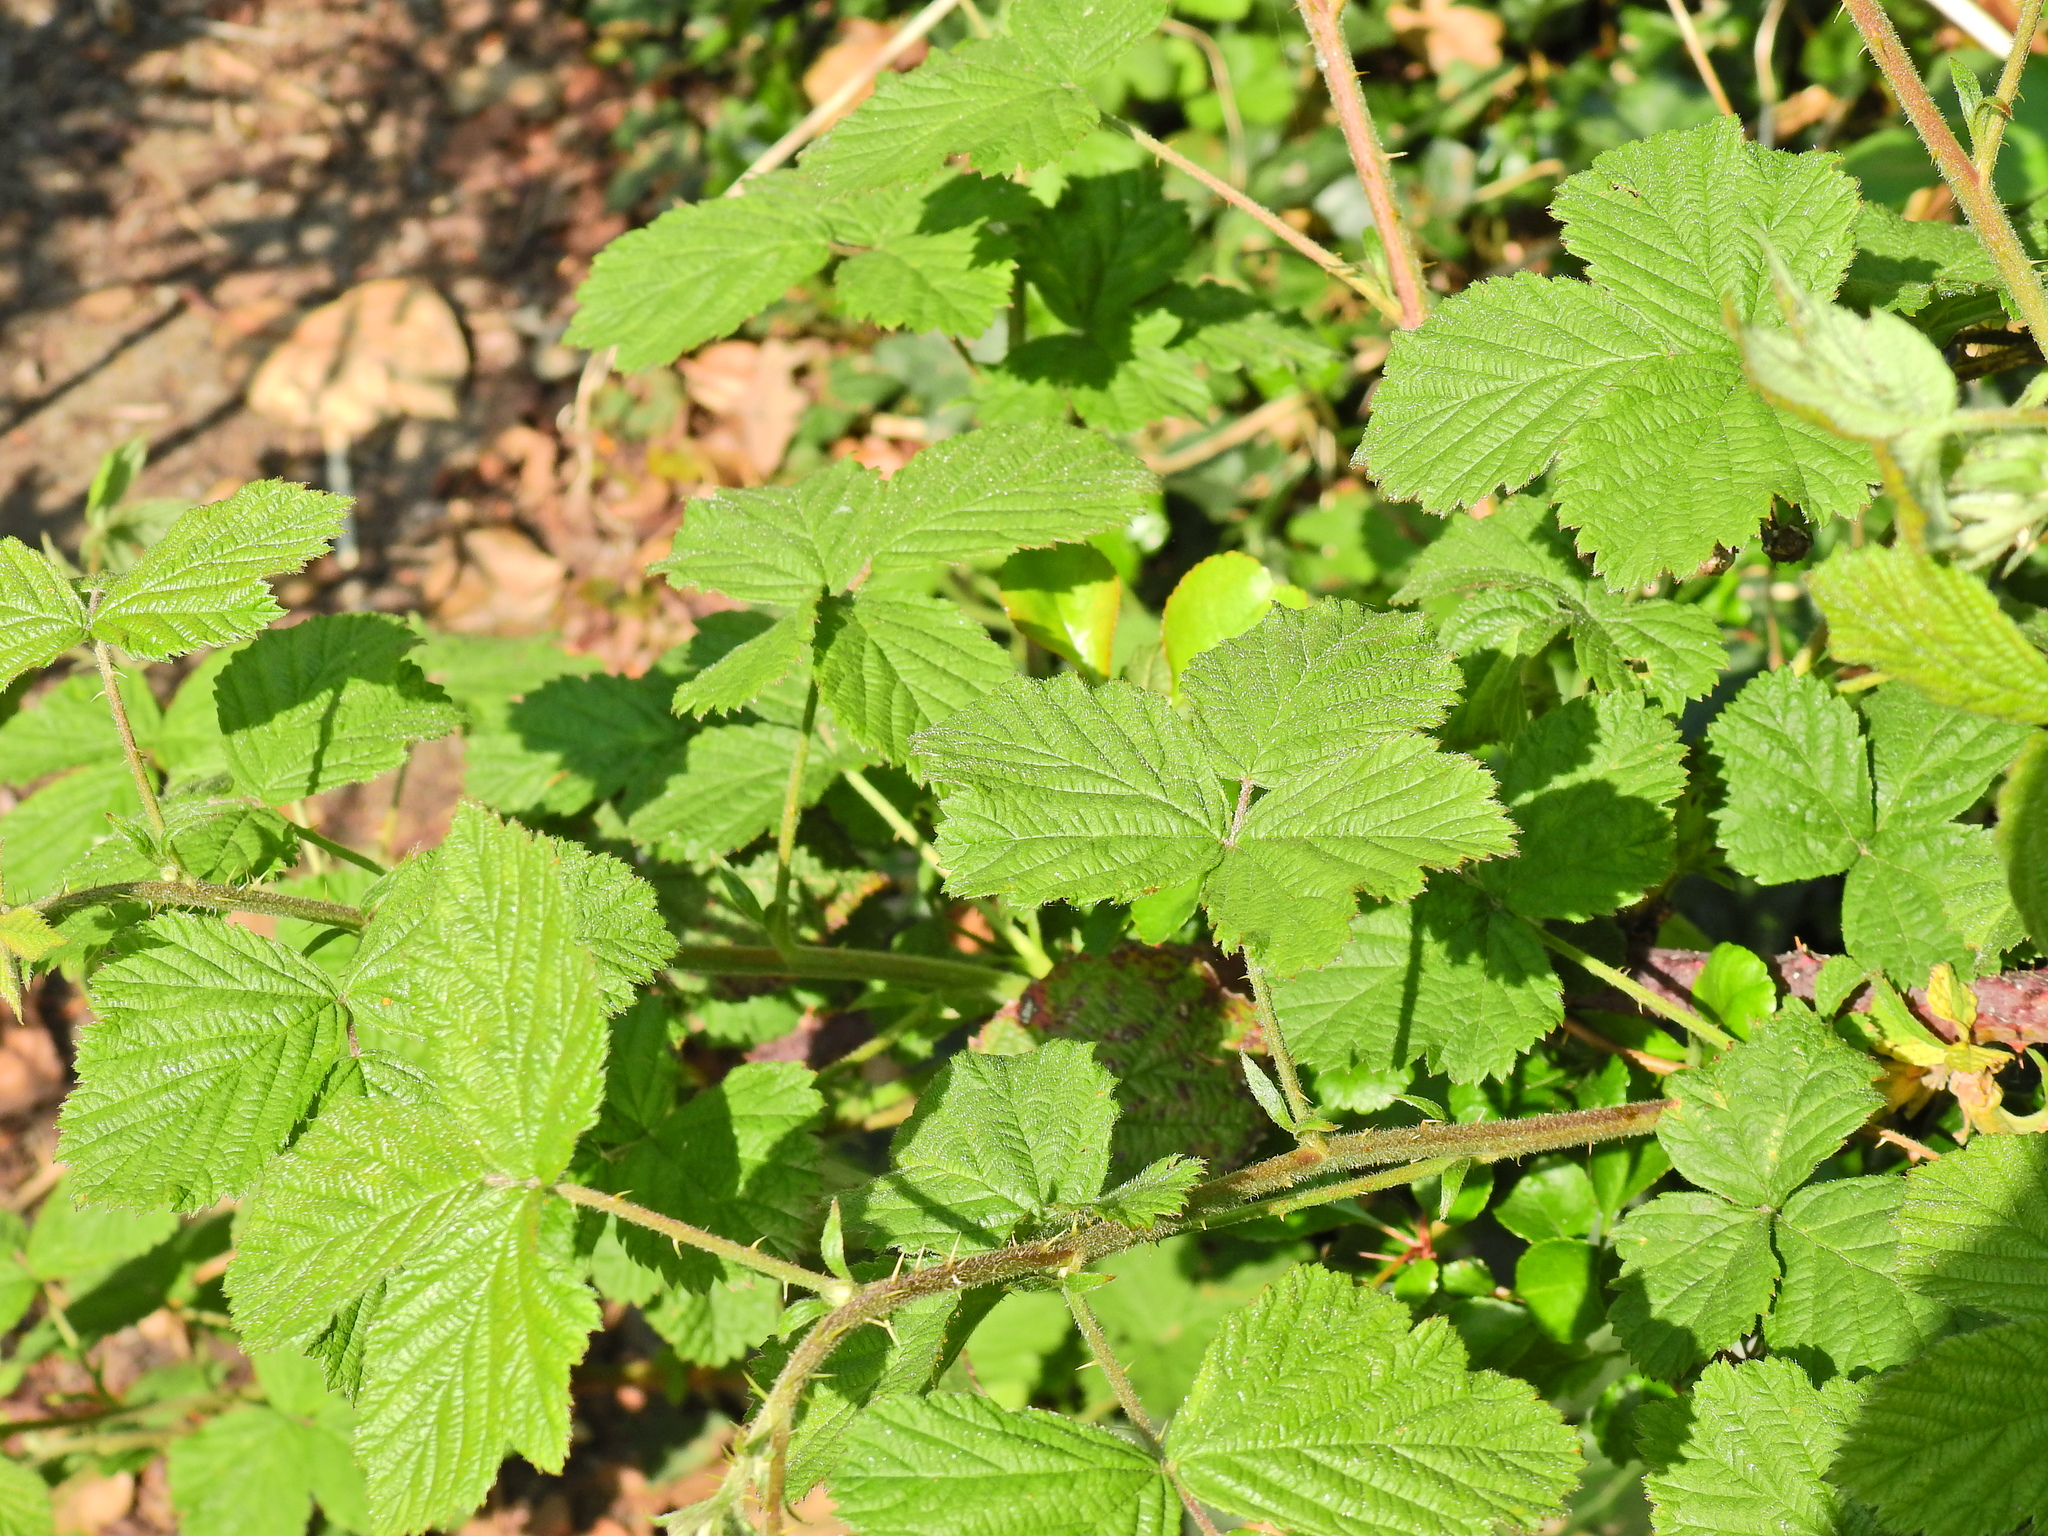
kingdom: Plantae
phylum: Tracheophyta
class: Magnoliopsida
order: Rosales
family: Rosaceae
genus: Rubus
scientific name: Rubus horrefactus
